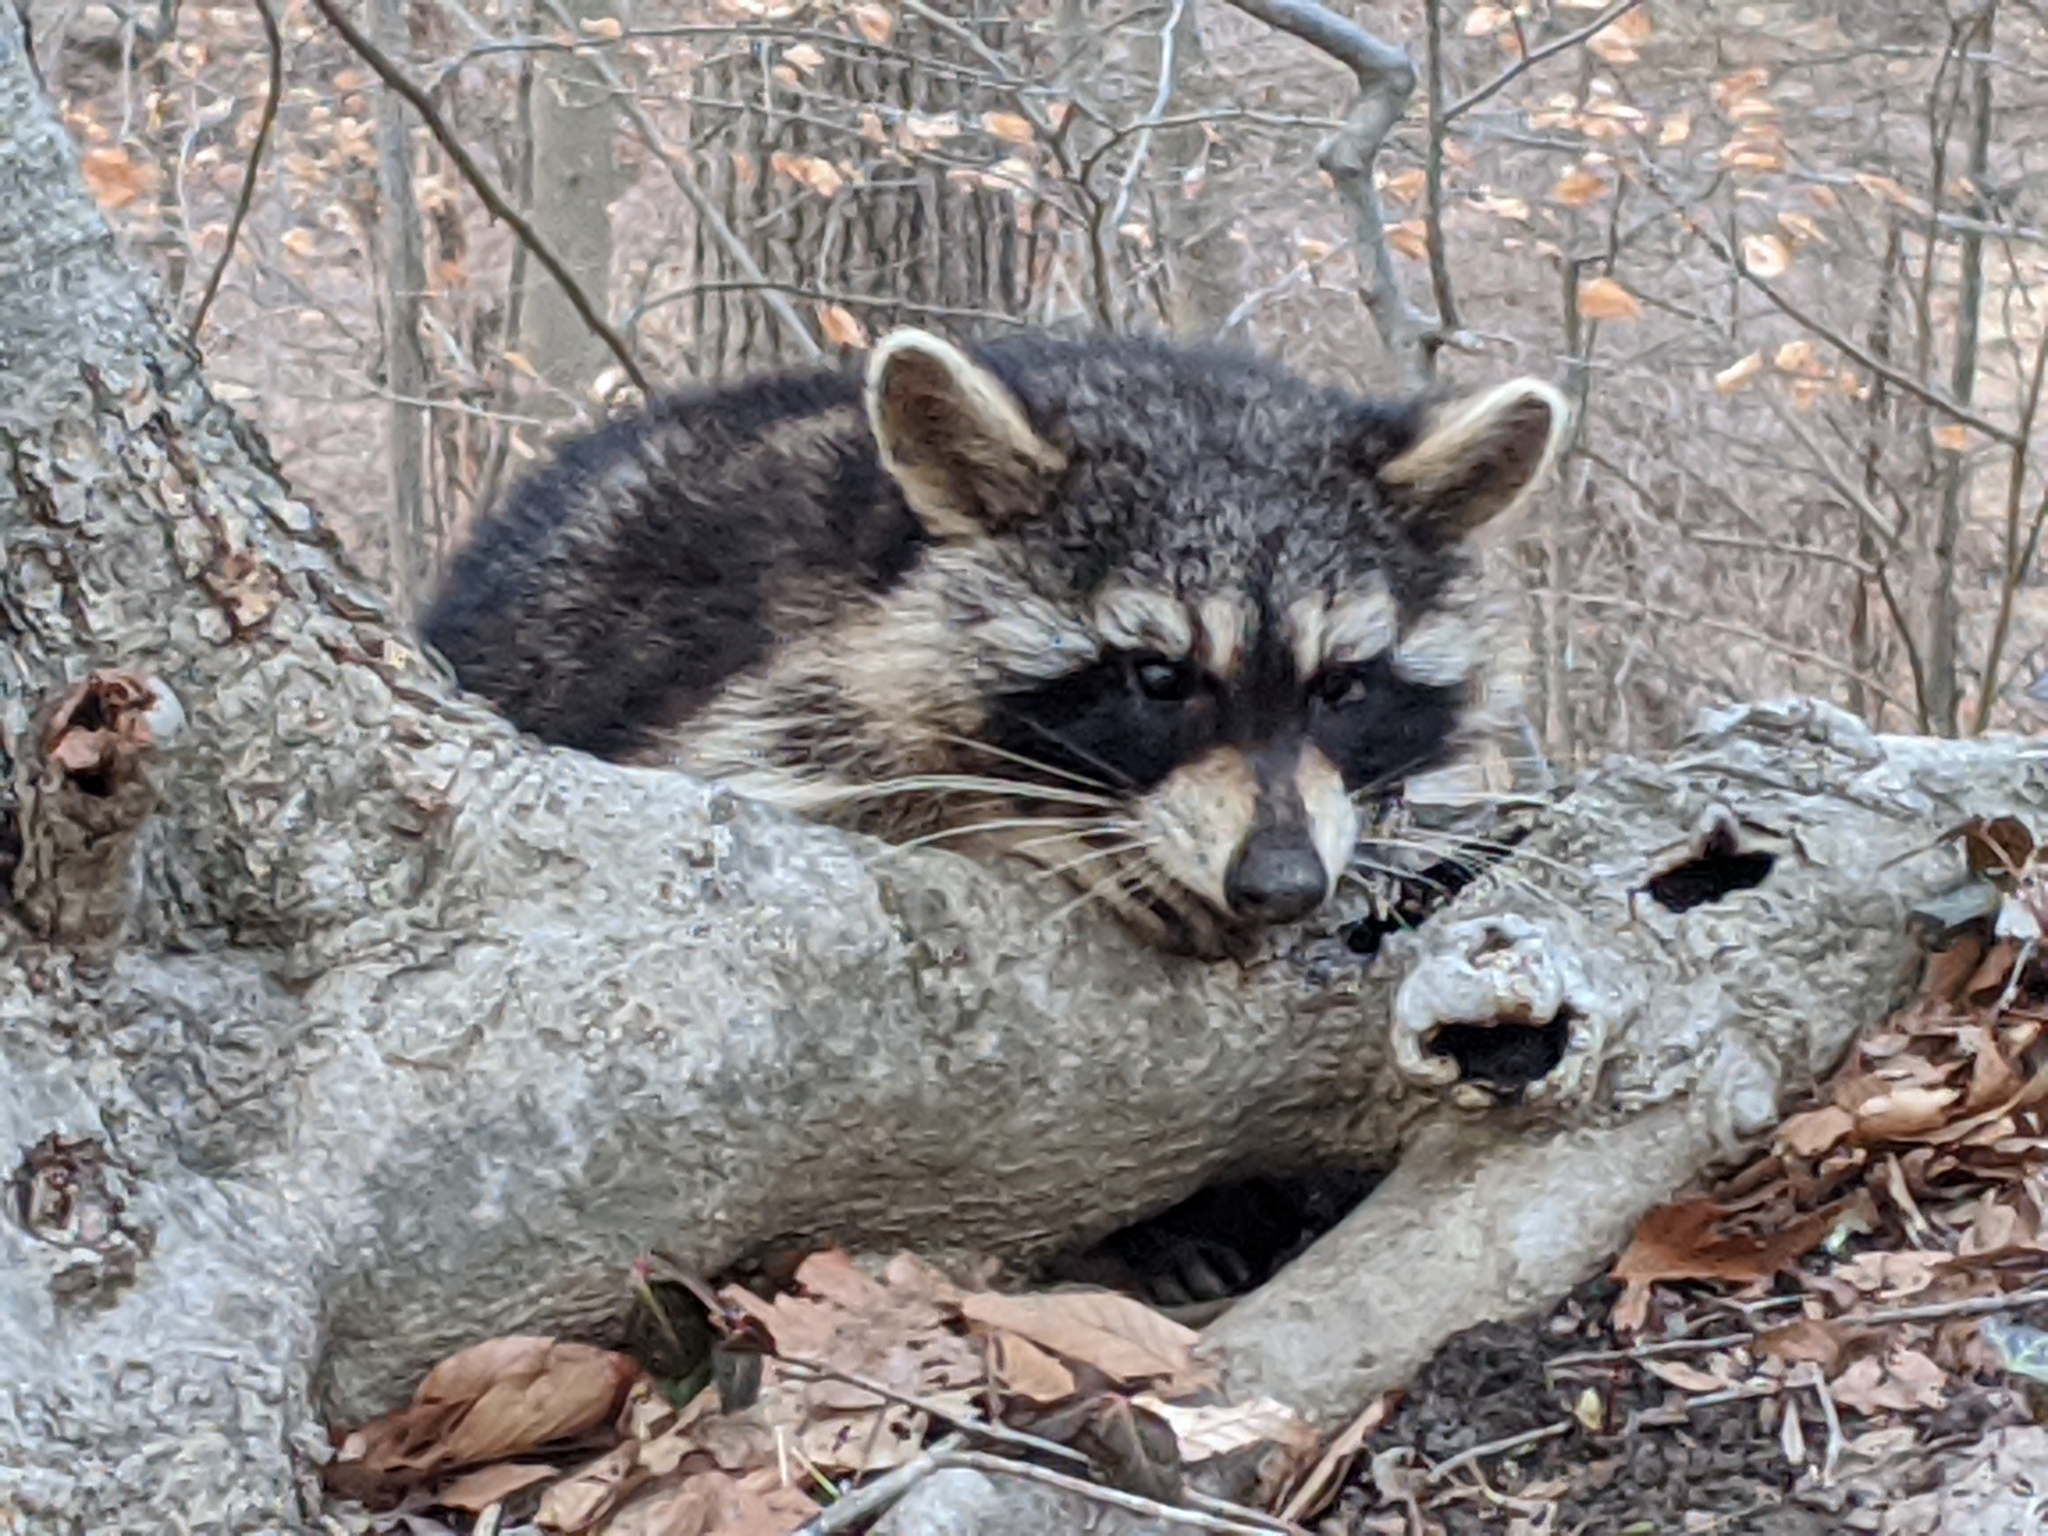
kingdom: Animalia
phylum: Chordata
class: Mammalia
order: Carnivora
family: Procyonidae
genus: Procyon
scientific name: Procyon lotor
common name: Raccoon
